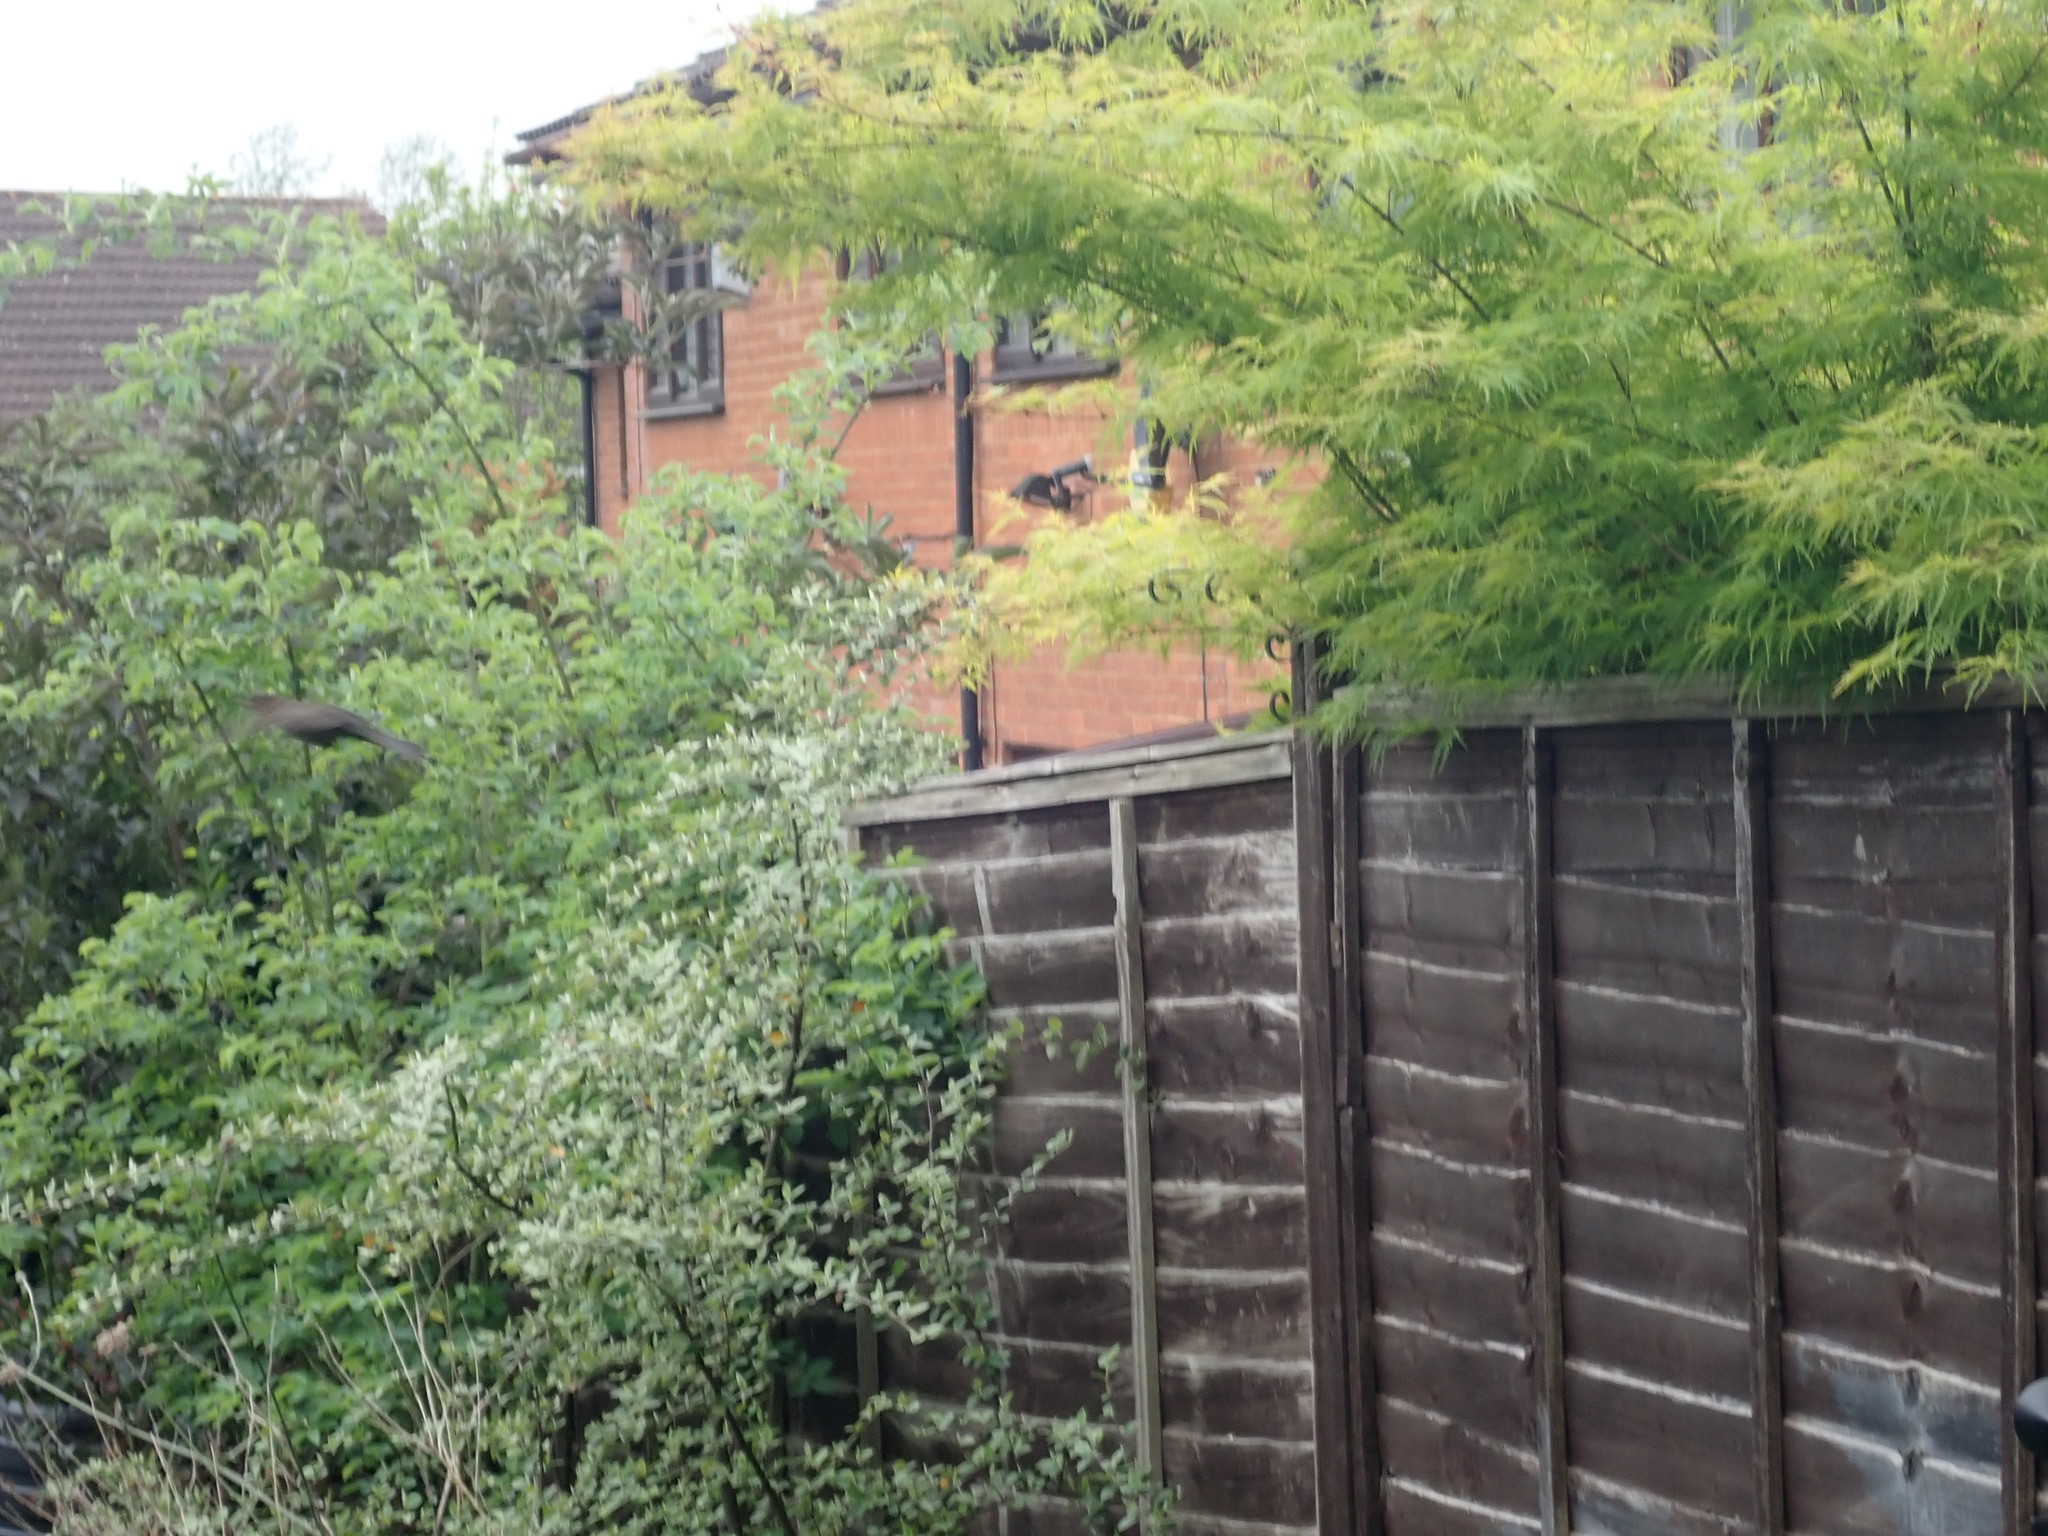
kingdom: Animalia
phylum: Chordata
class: Aves
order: Passeriformes
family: Turdidae
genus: Turdus
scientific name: Turdus merula
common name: Common blackbird
